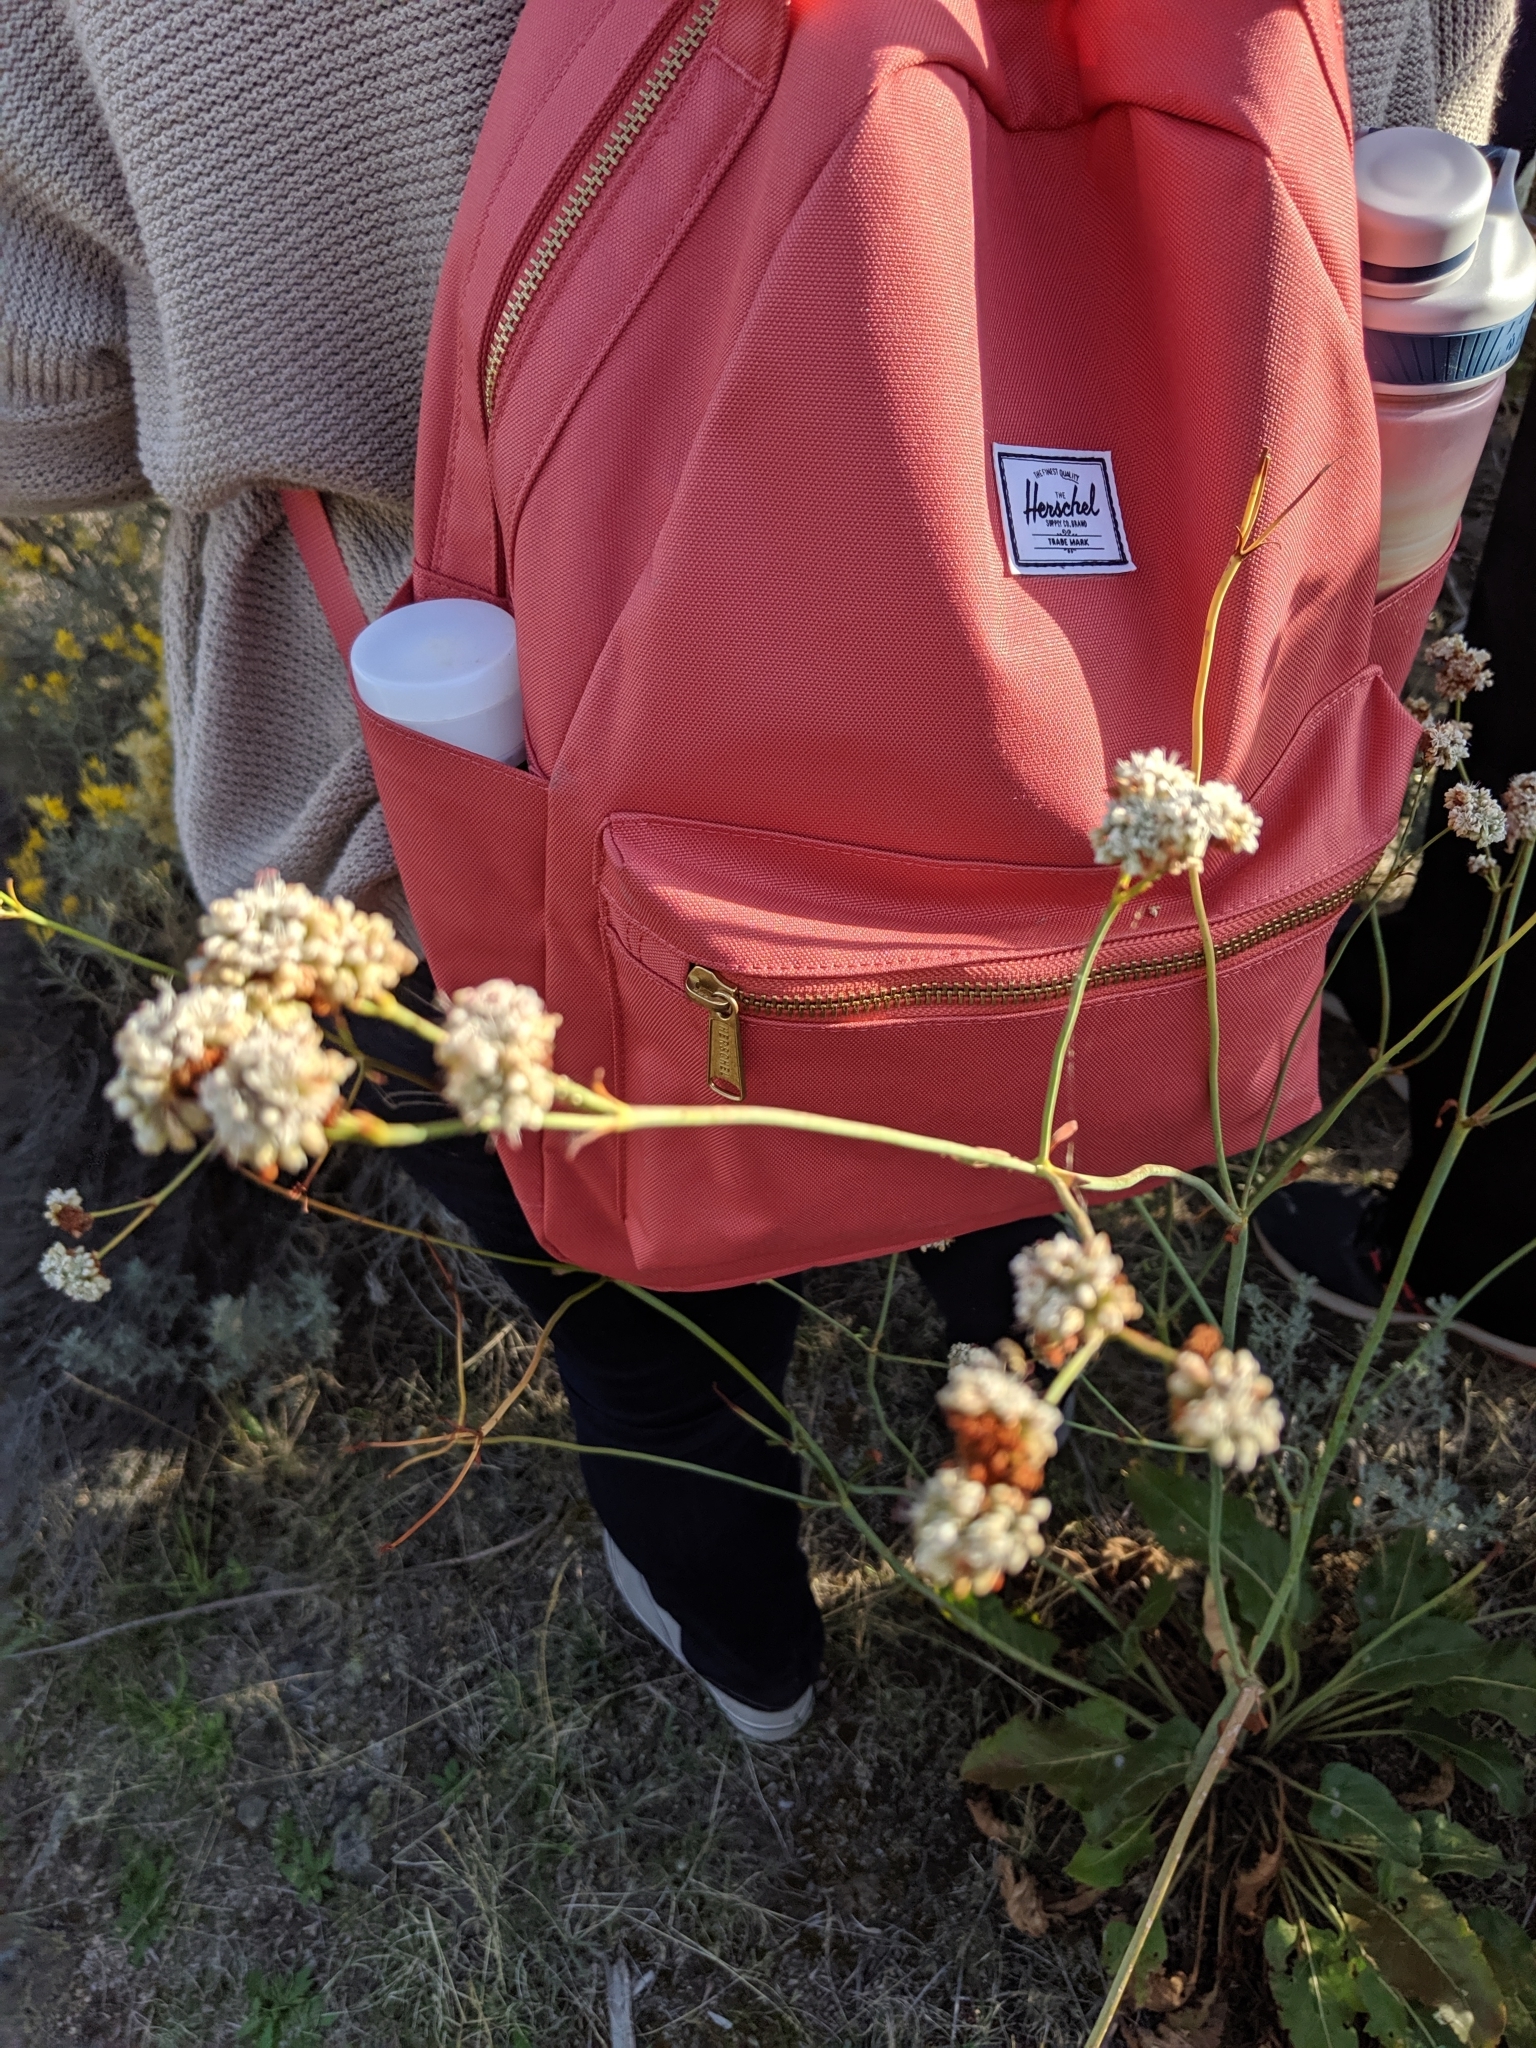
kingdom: Plantae
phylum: Tracheophyta
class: Magnoliopsida
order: Caryophyllales
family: Polygonaceae
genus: Eriogonum
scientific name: Eriogonum elatum
